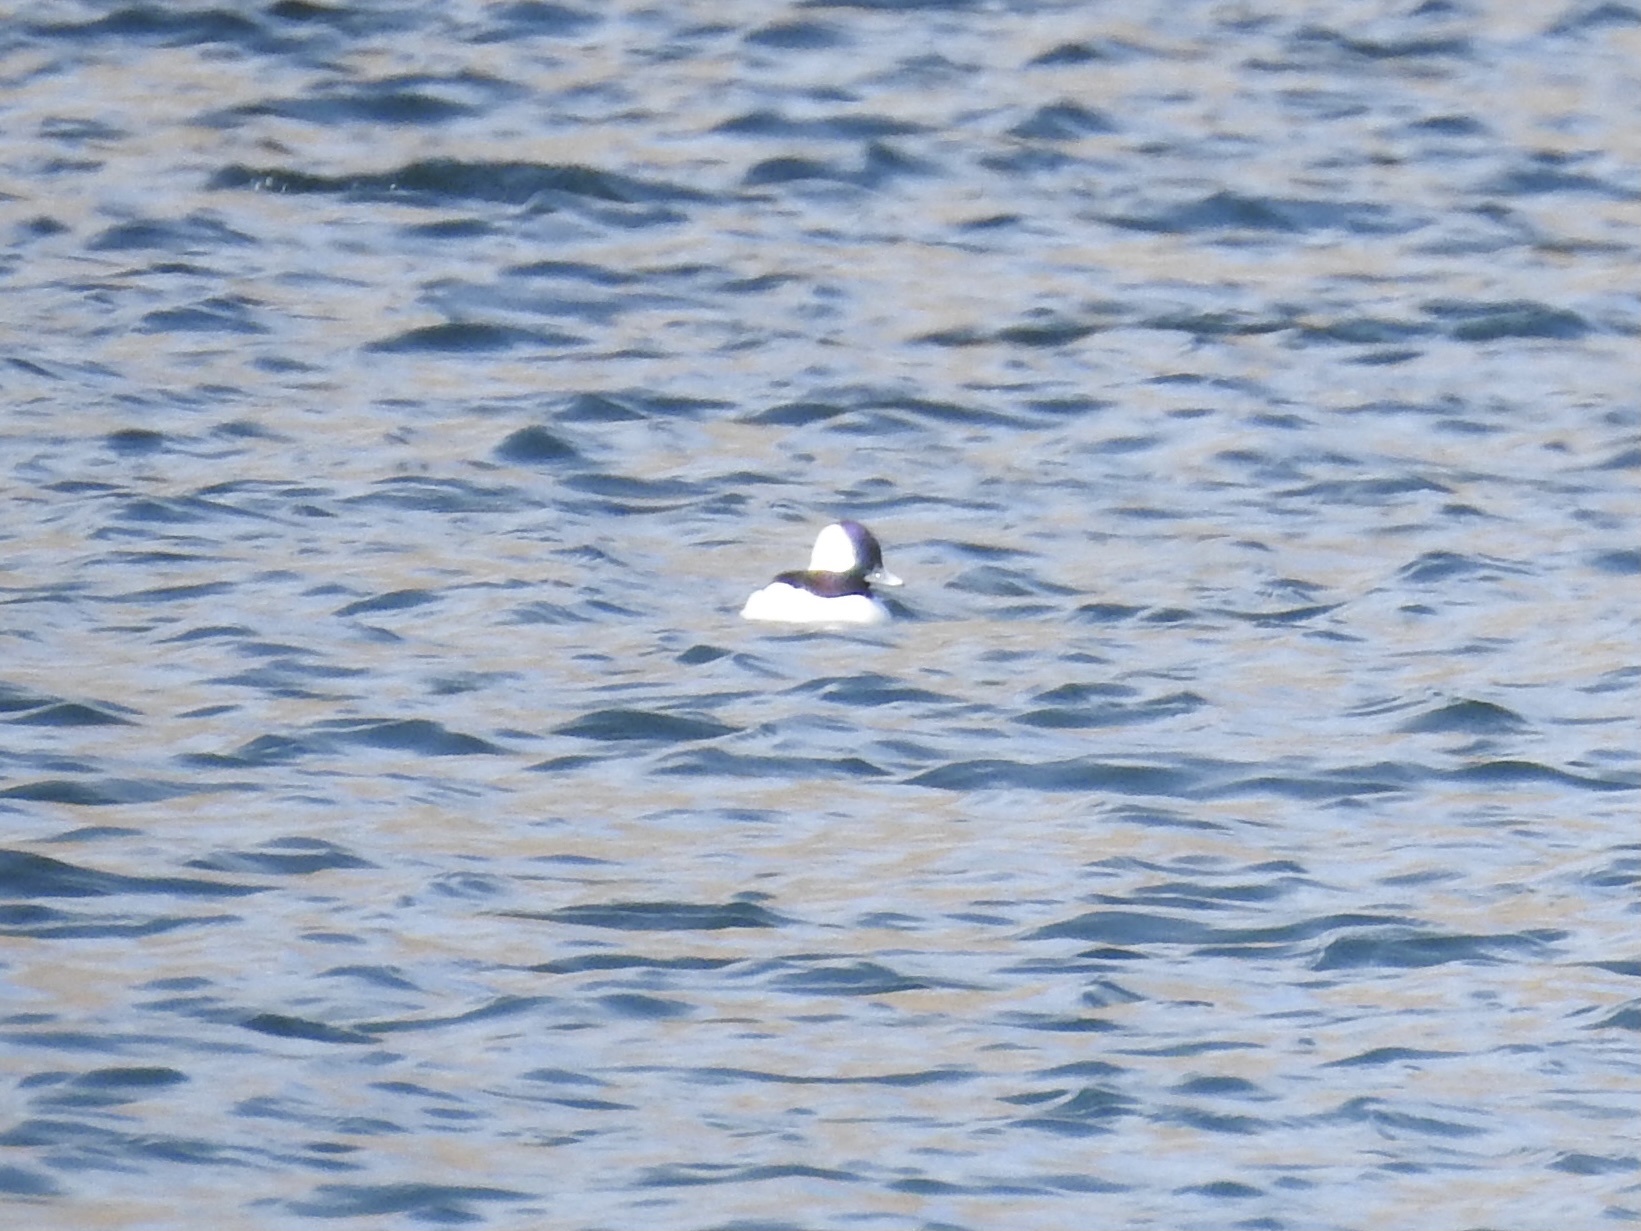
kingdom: Animalia
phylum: Chordata
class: Aves
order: Anseriformes
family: Anatidae
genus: Bucephala
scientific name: Bucephala albeola
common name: Bufflehead
